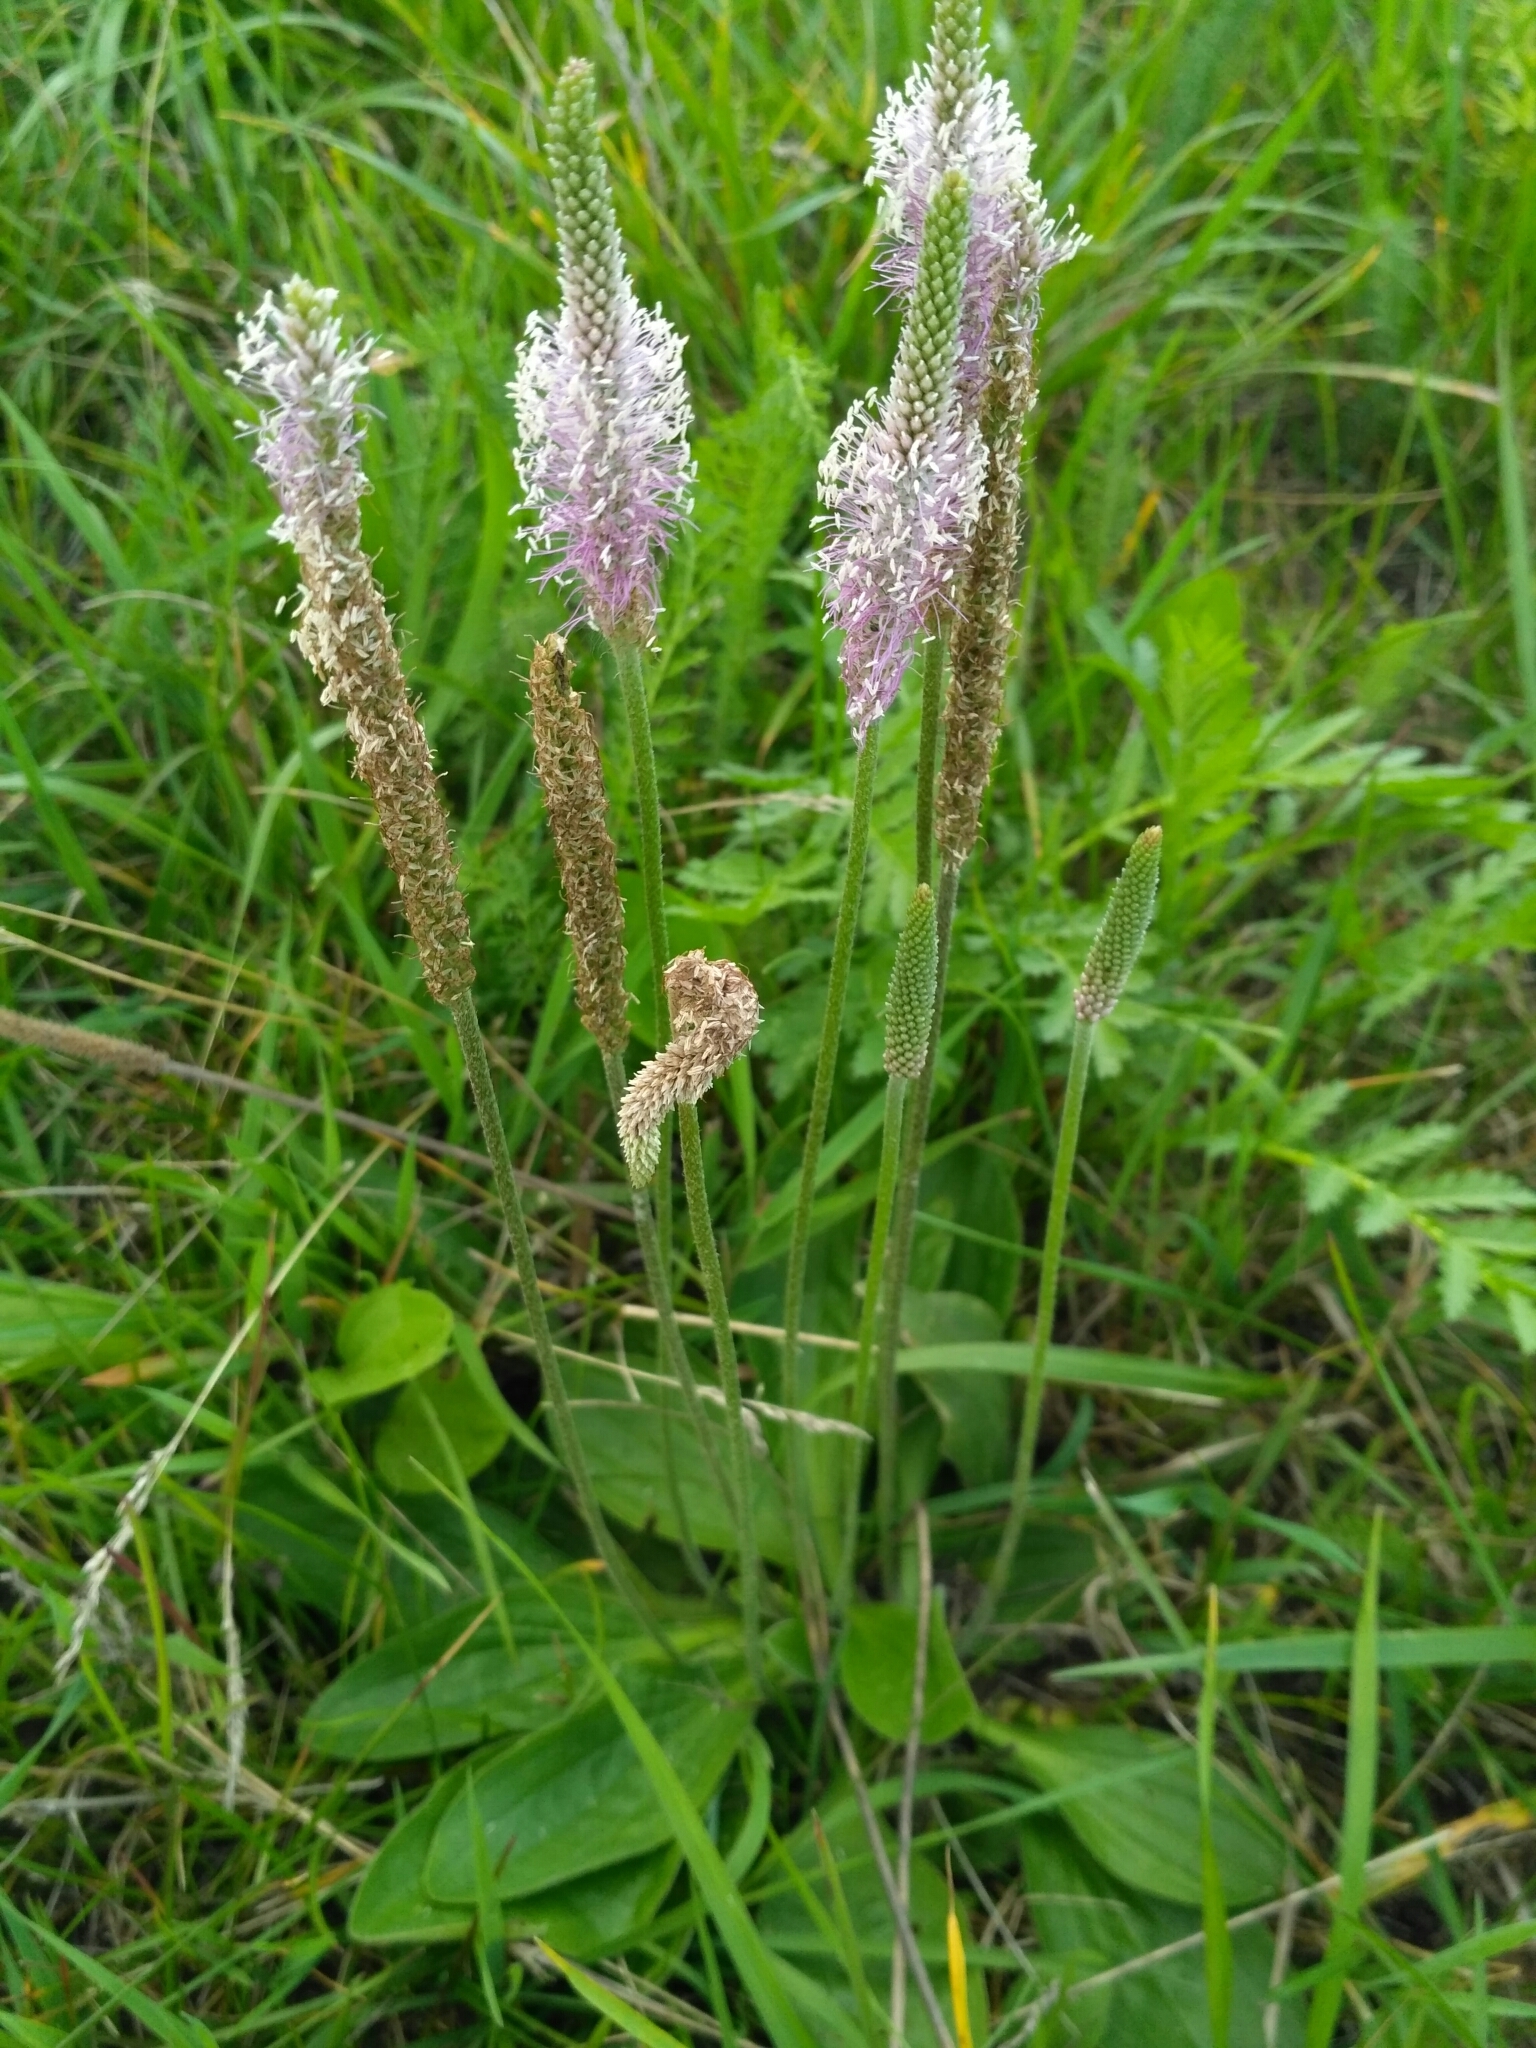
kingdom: Plantae
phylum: Tracheophyta
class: Magnoliopsida
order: Lamiales
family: Plantaginaceae
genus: Plantago
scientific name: Plantago media
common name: Hoary plantain
